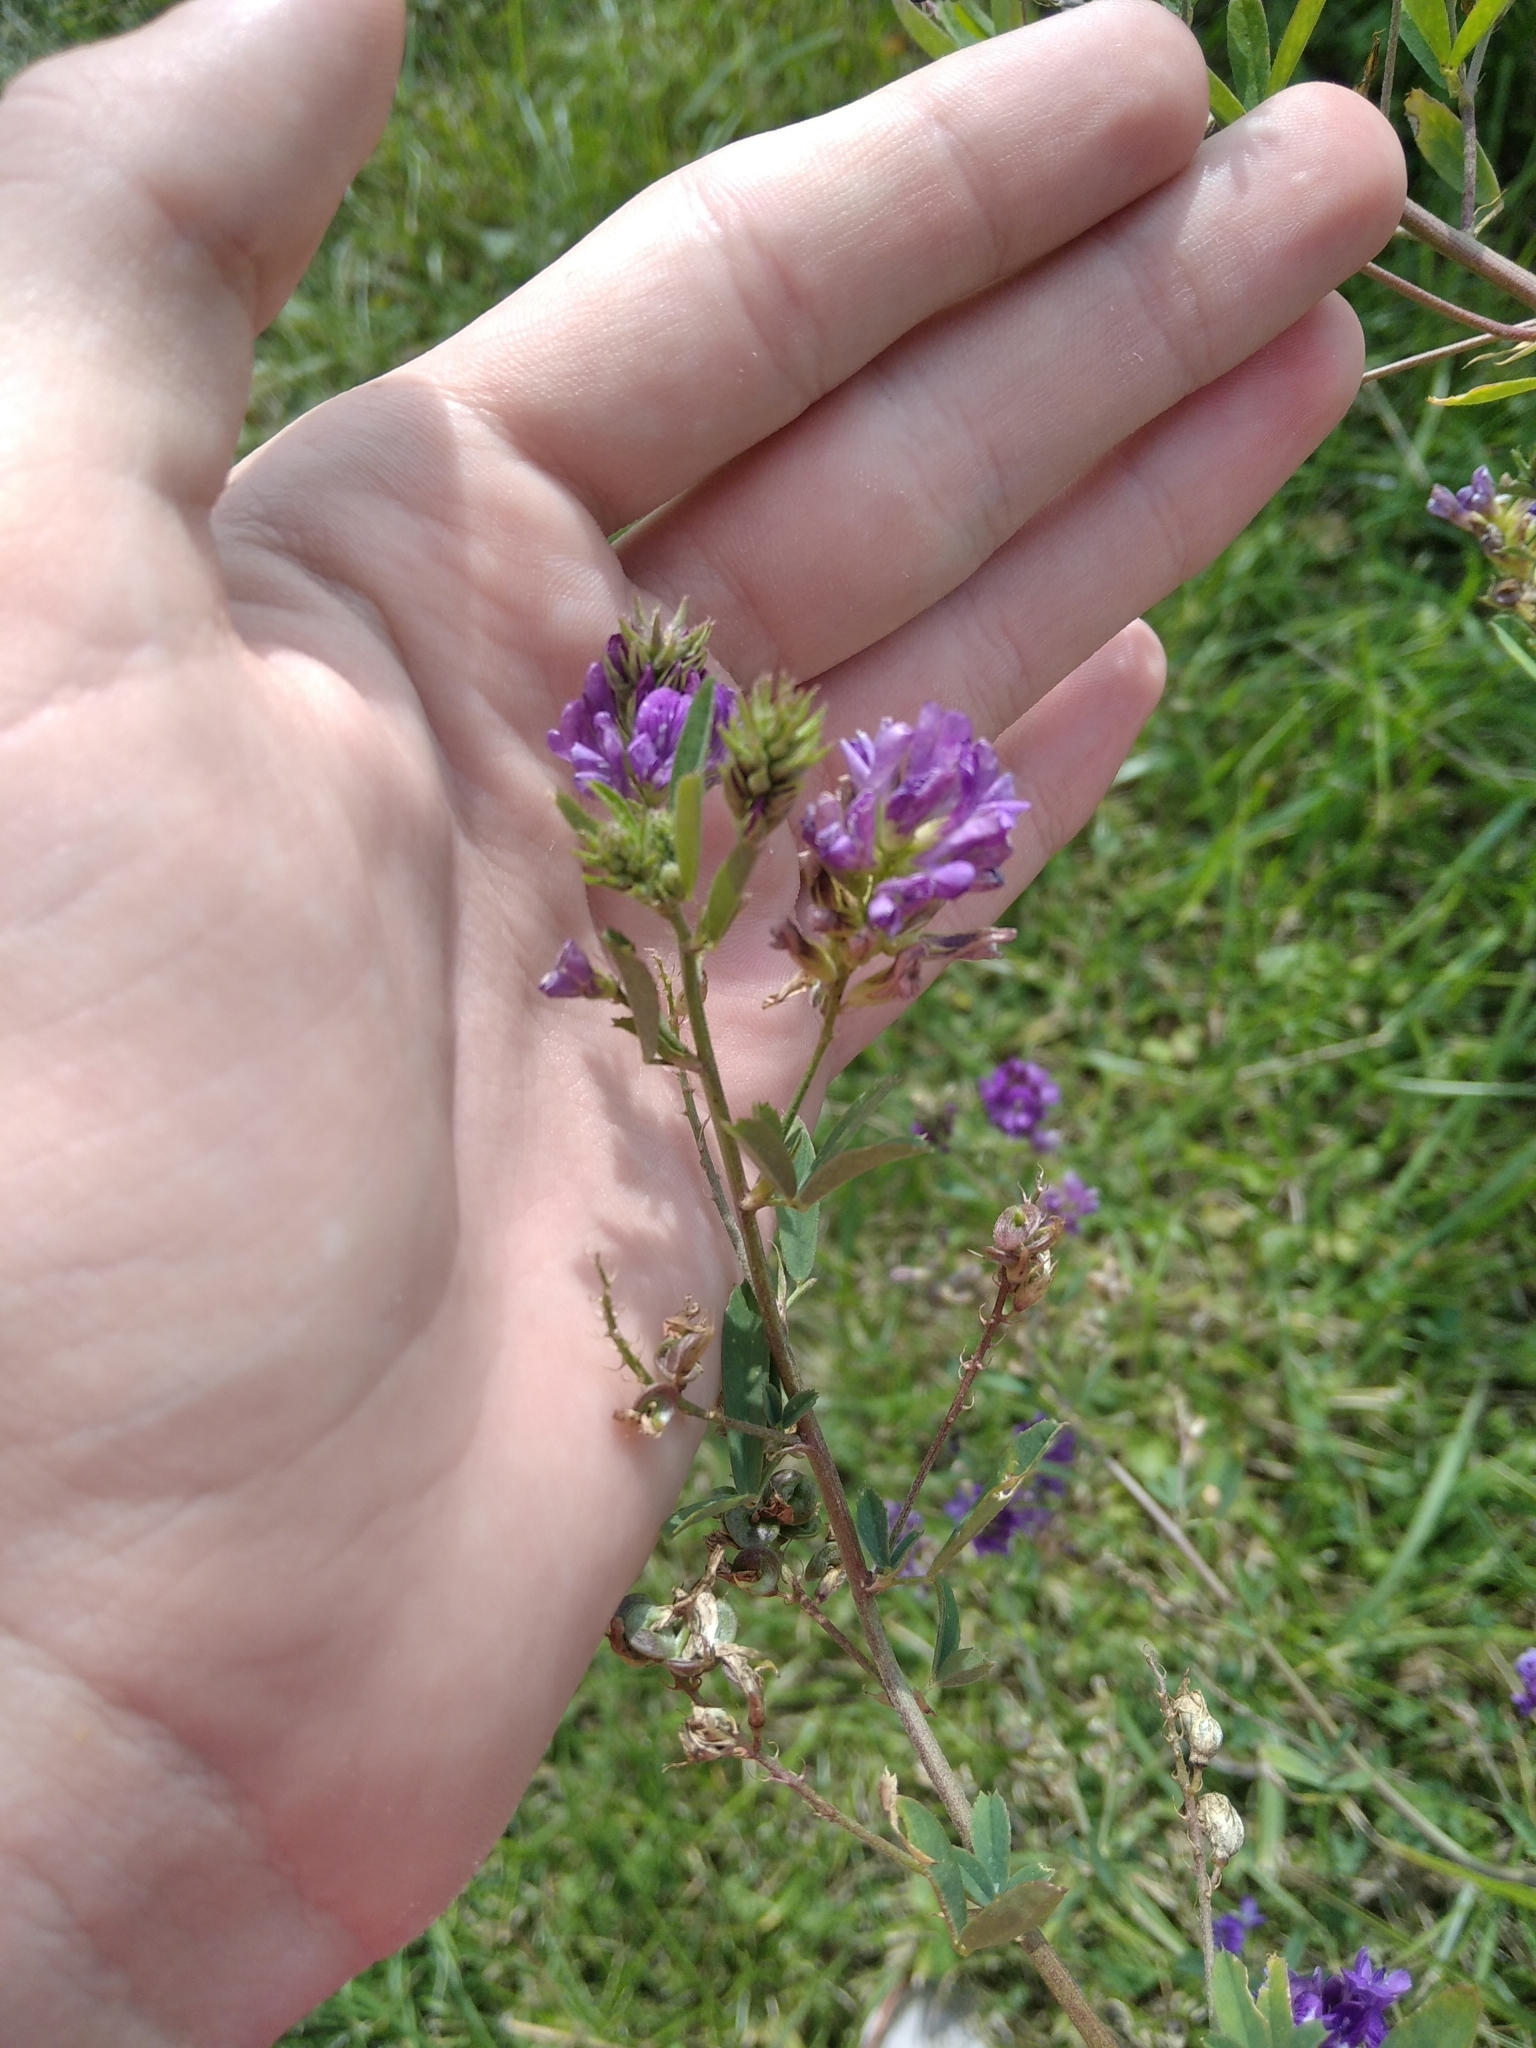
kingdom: Plantae
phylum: Tracheophyta
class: Magnoliopsida
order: Fabales
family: Fabaceae
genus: Medicago
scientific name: Medicago sativa
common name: Alfalfa
